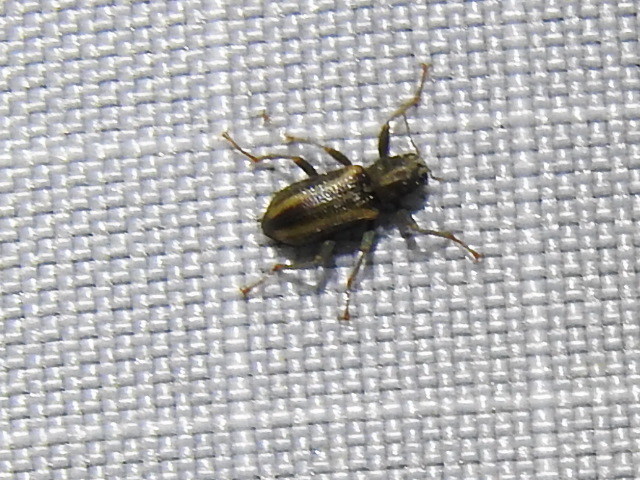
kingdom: Animalia
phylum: Arthropoda
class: Insecta
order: Coleoptera
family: Elmidae
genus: Stenelmis
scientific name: Stenelmis cheryl
